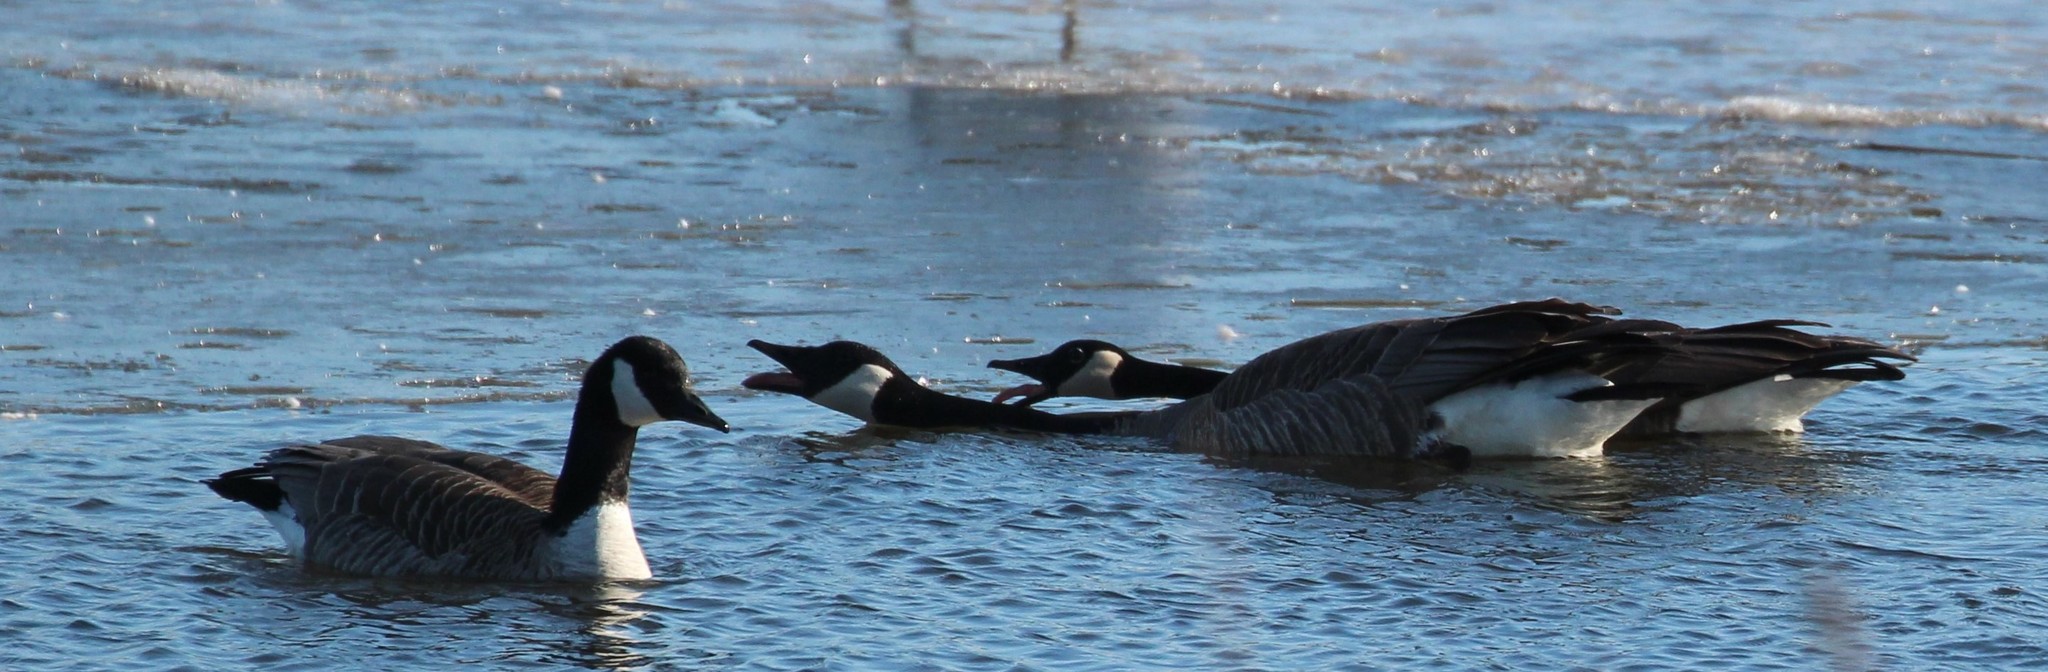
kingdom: Animalia
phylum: Chordata
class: Aves
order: Anseriformes
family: Anatidae
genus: Branta
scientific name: Branta canadensis
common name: Canada goose
